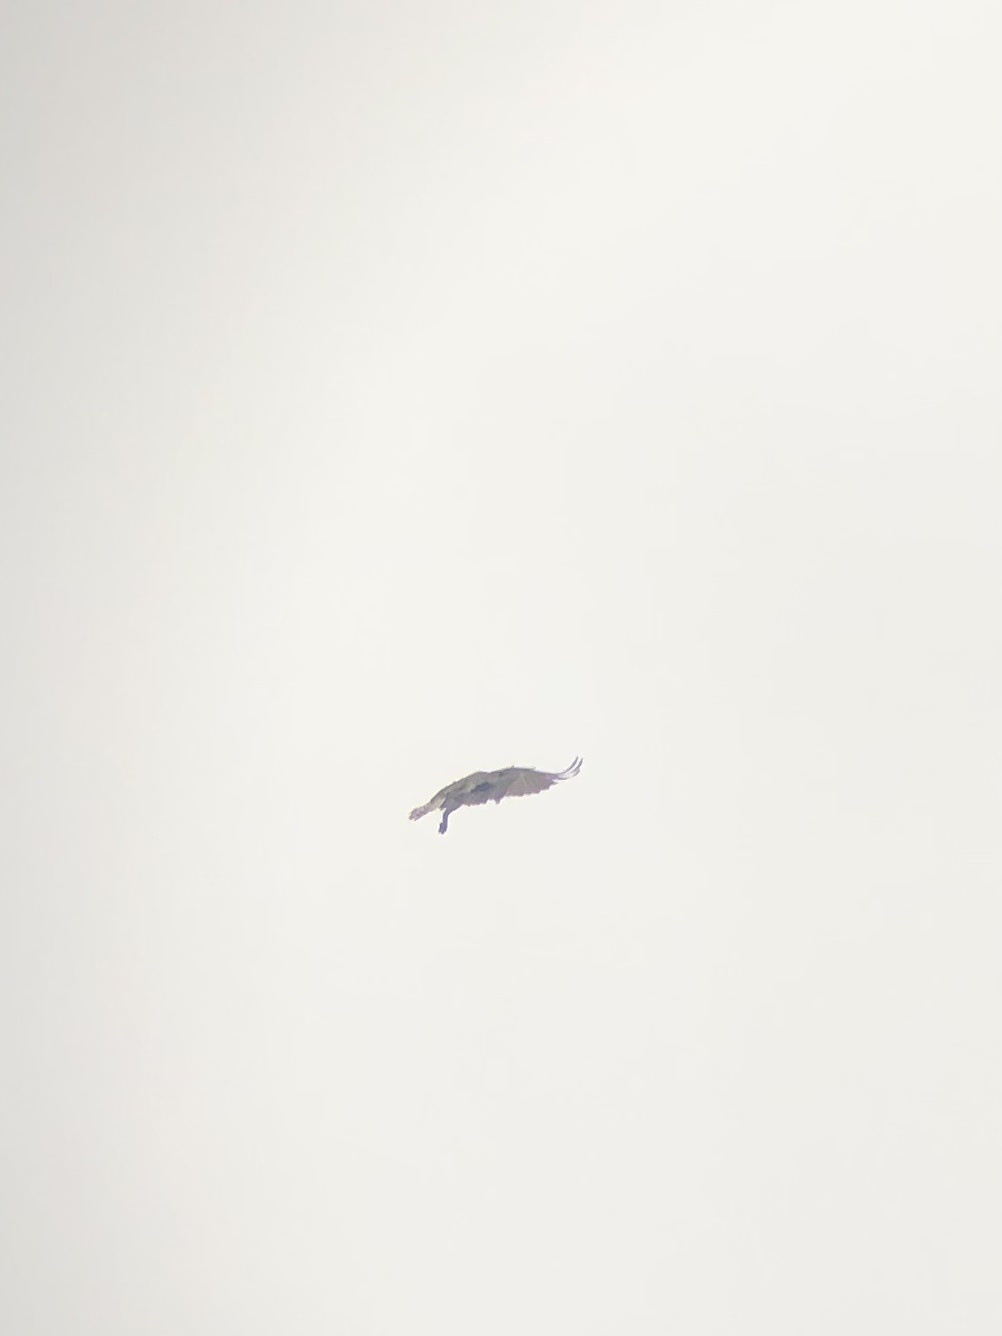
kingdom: Animalia
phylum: Chordata
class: Aves
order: Accipitriformes
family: Pandionidae
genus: Pandion
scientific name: Pandion haliaetus
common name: Osprey
